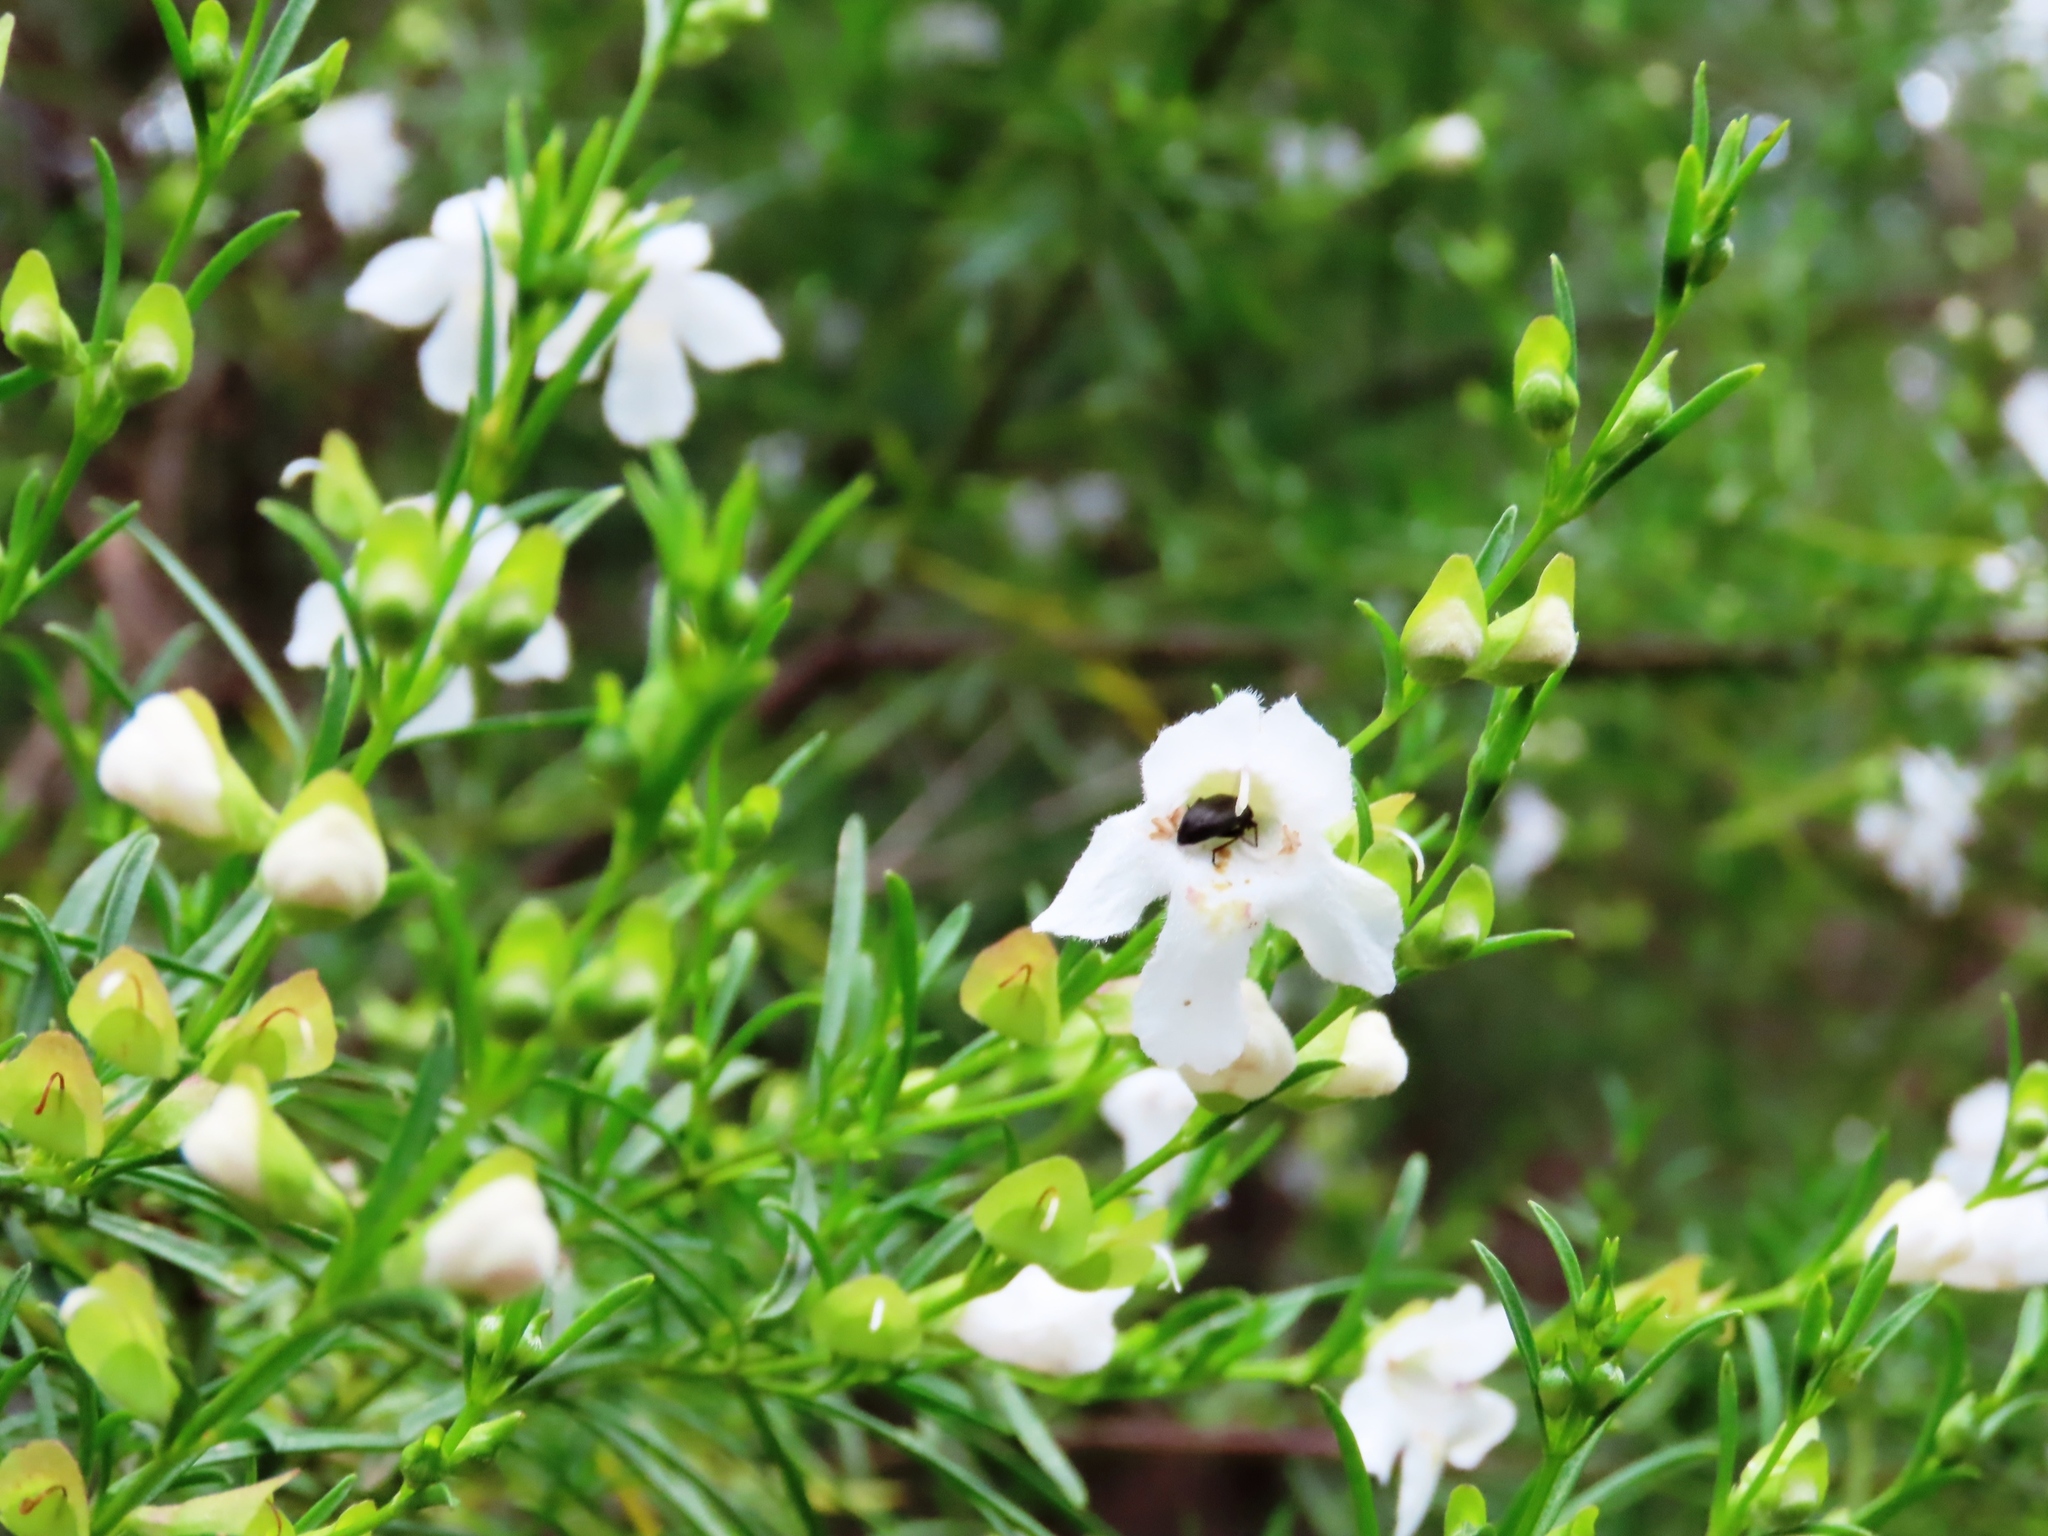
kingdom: Plantae
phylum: Tracheophyta
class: Magnoliopsida
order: Lamiales
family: Lamiaceae
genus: Prostanthera
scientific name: Prostanthera nivea
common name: Snowy mintbush
